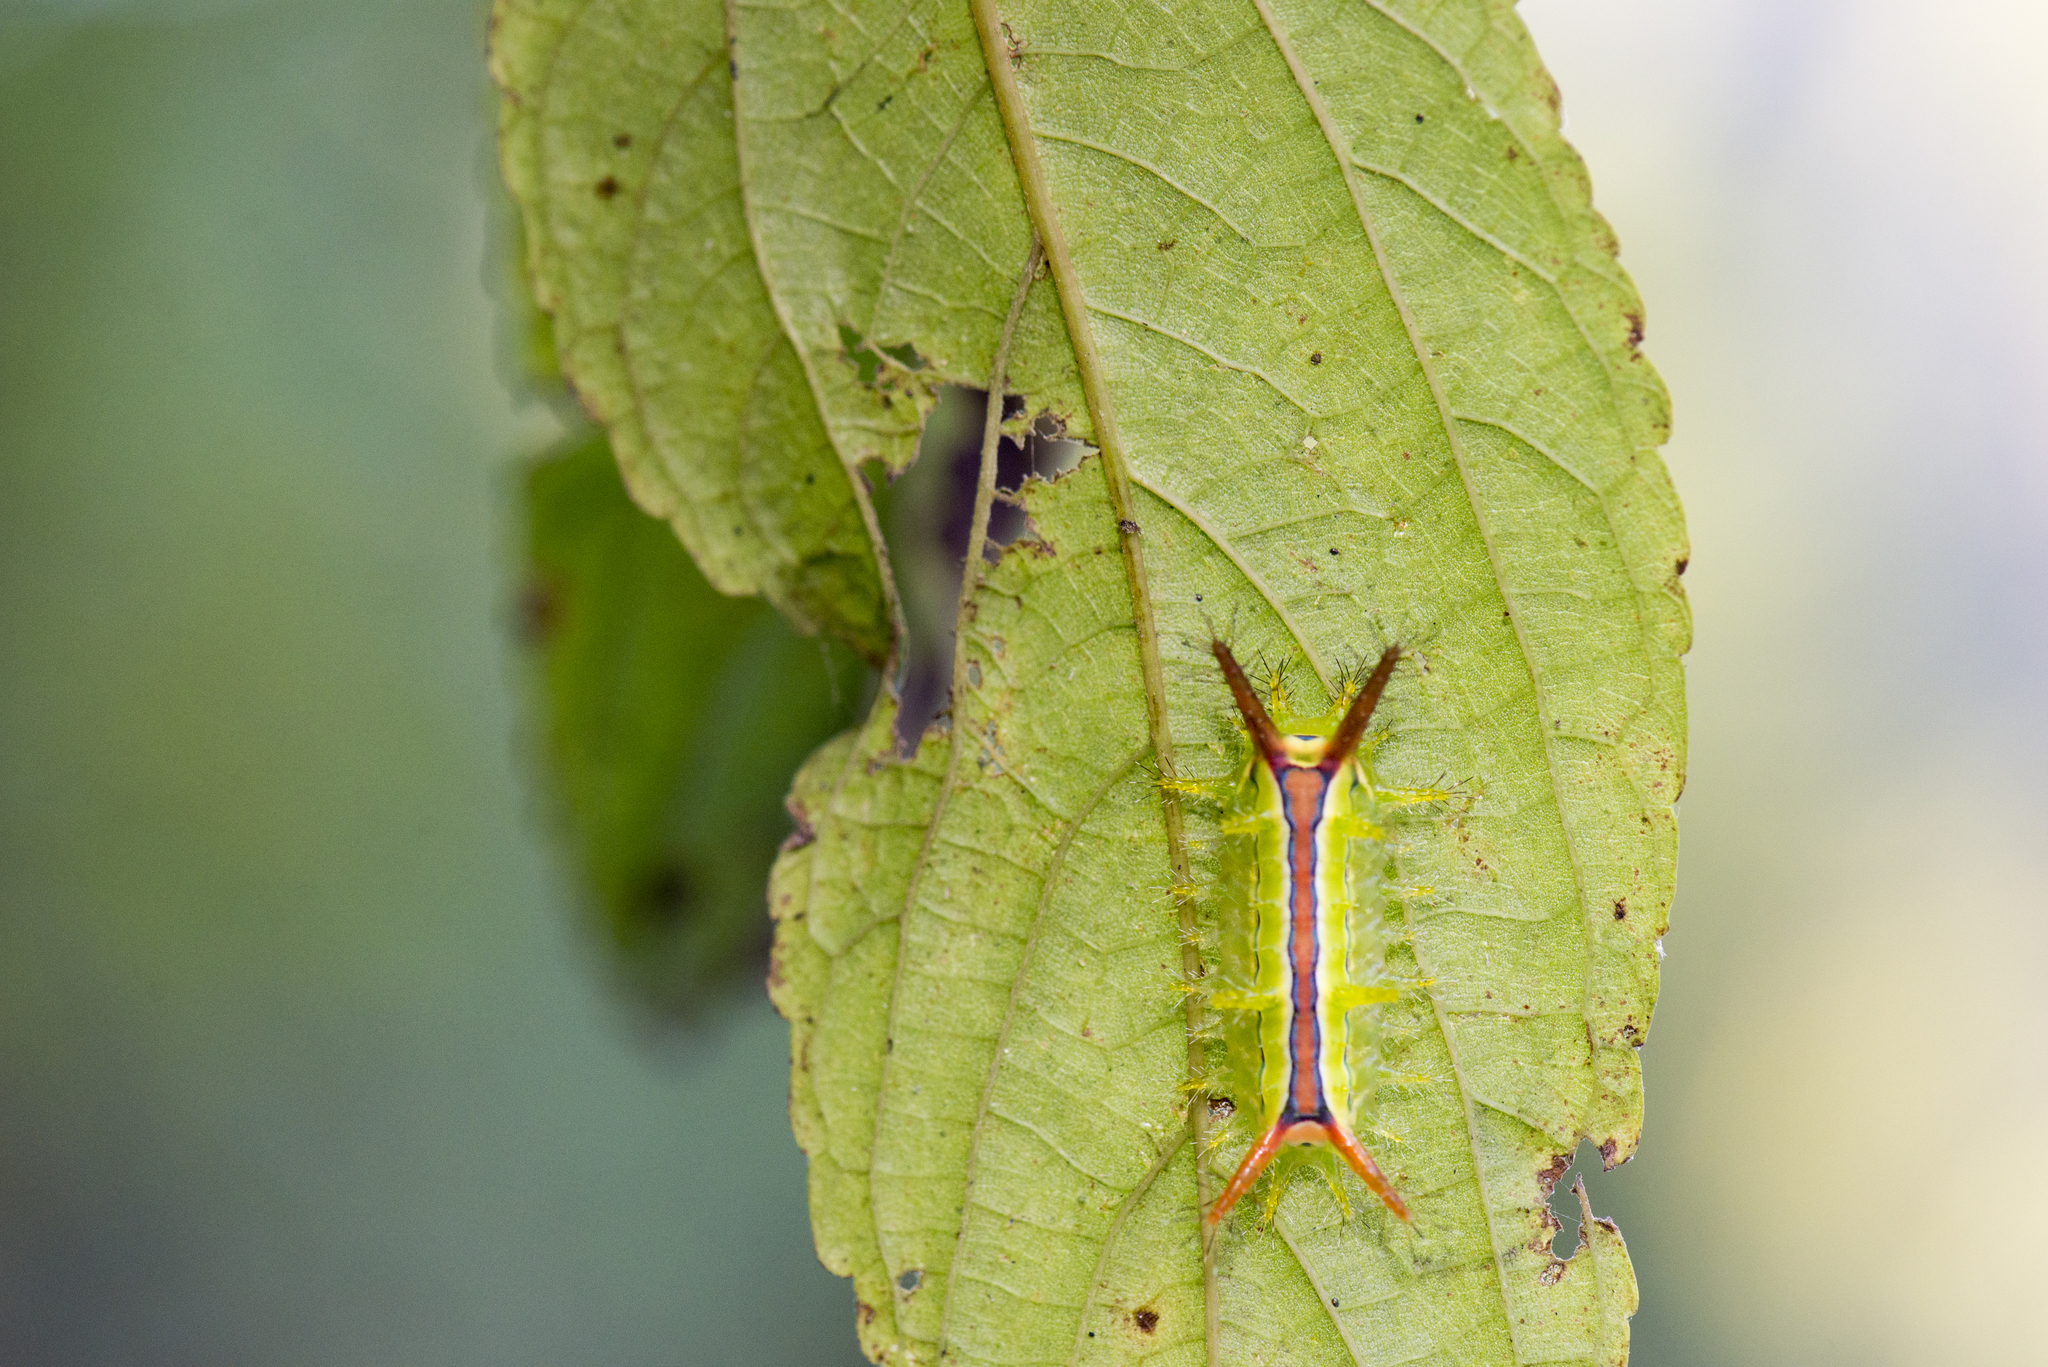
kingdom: Animalia
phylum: Arthropoda
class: Insecta
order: Lepidoptera
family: Limacodidae
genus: Birthamula
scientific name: Birthamula rufa
